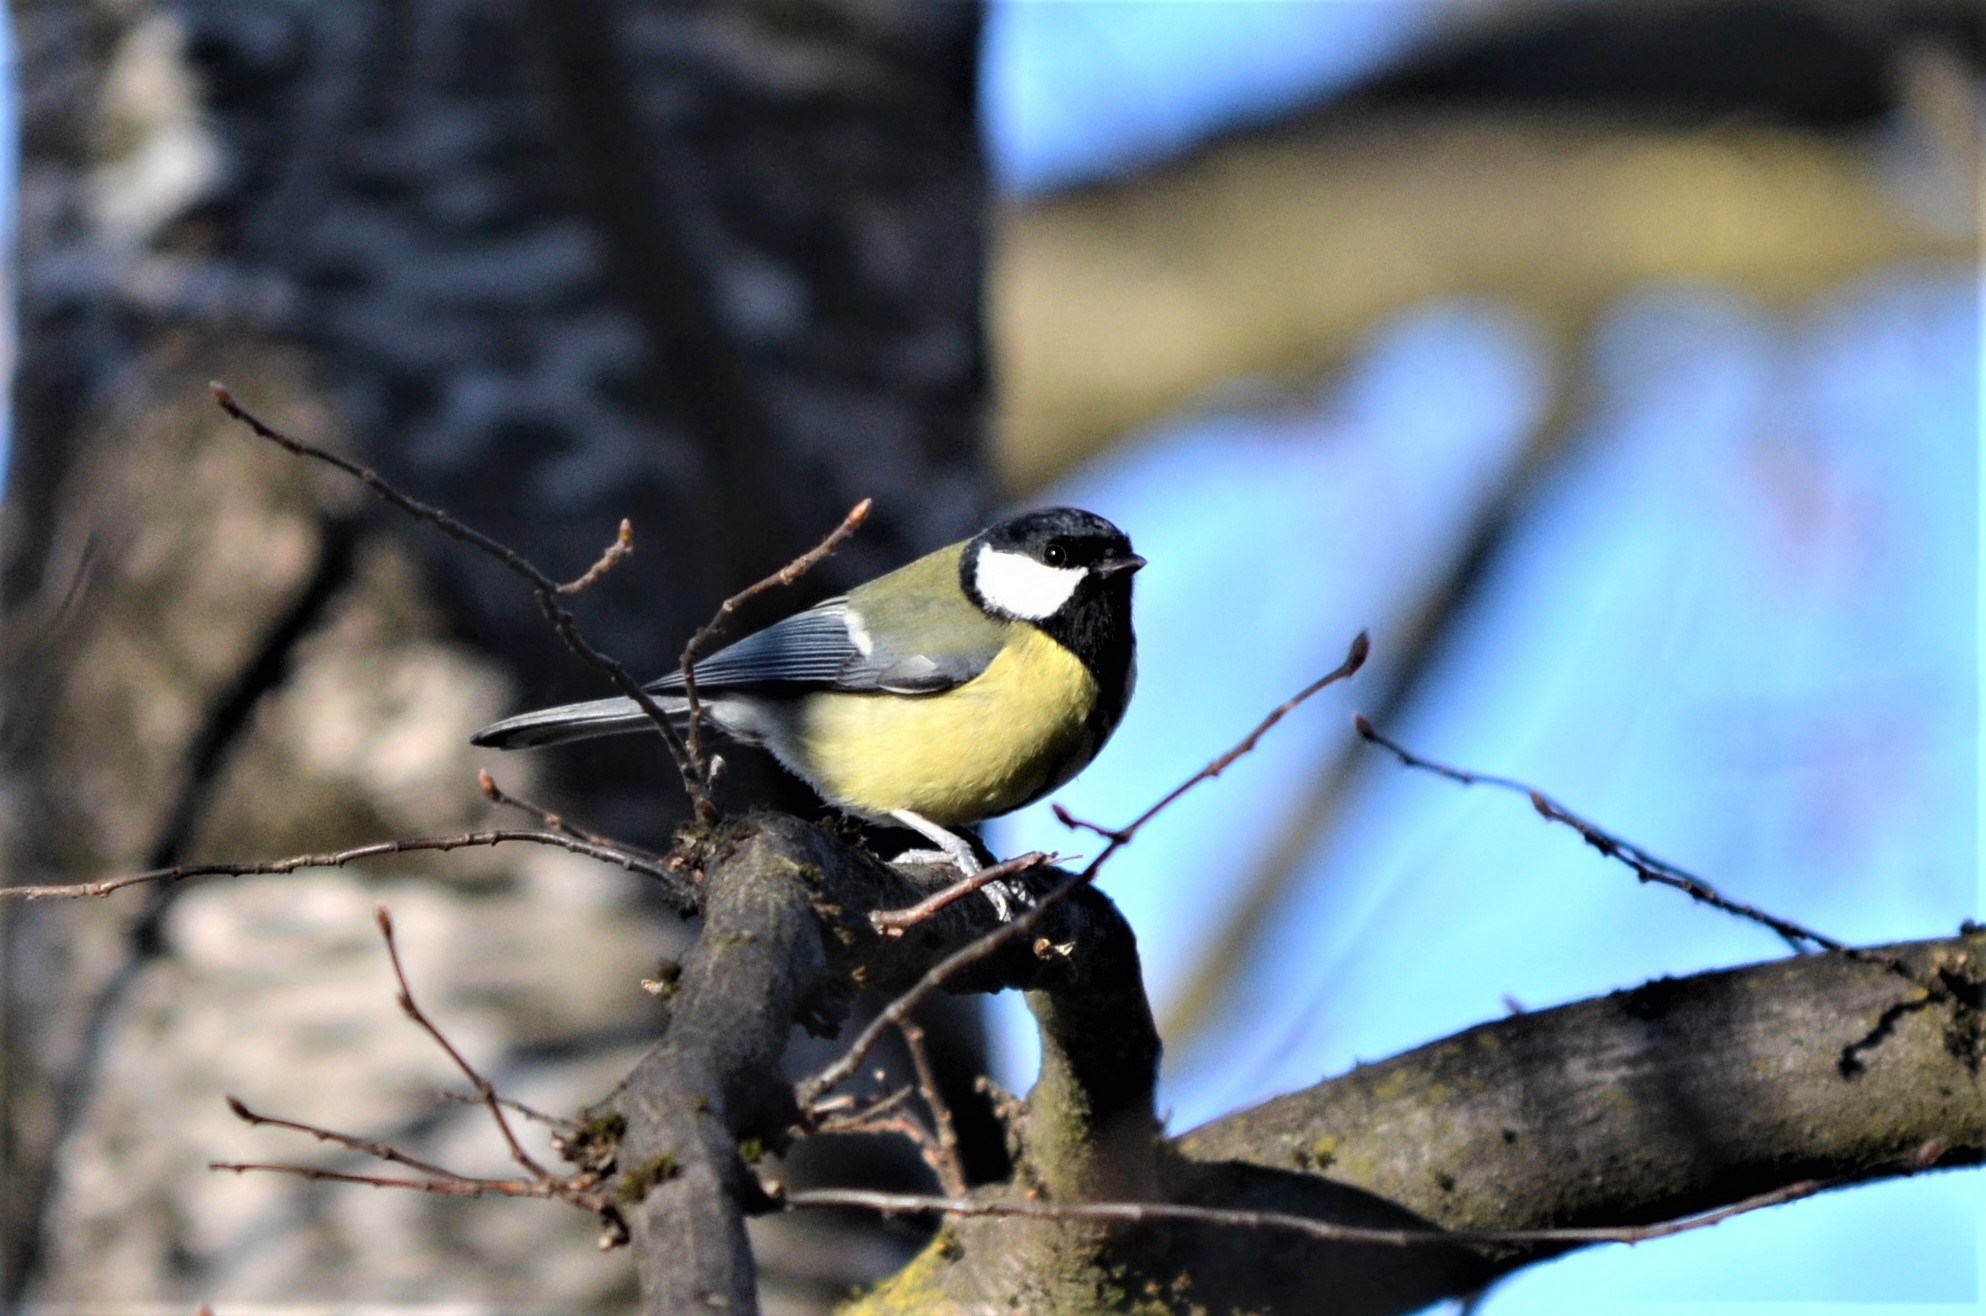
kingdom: Animalia
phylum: Chordata
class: Aves
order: Passeriformes
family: Paridae
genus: Parus
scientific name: Parus major
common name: Great tit
